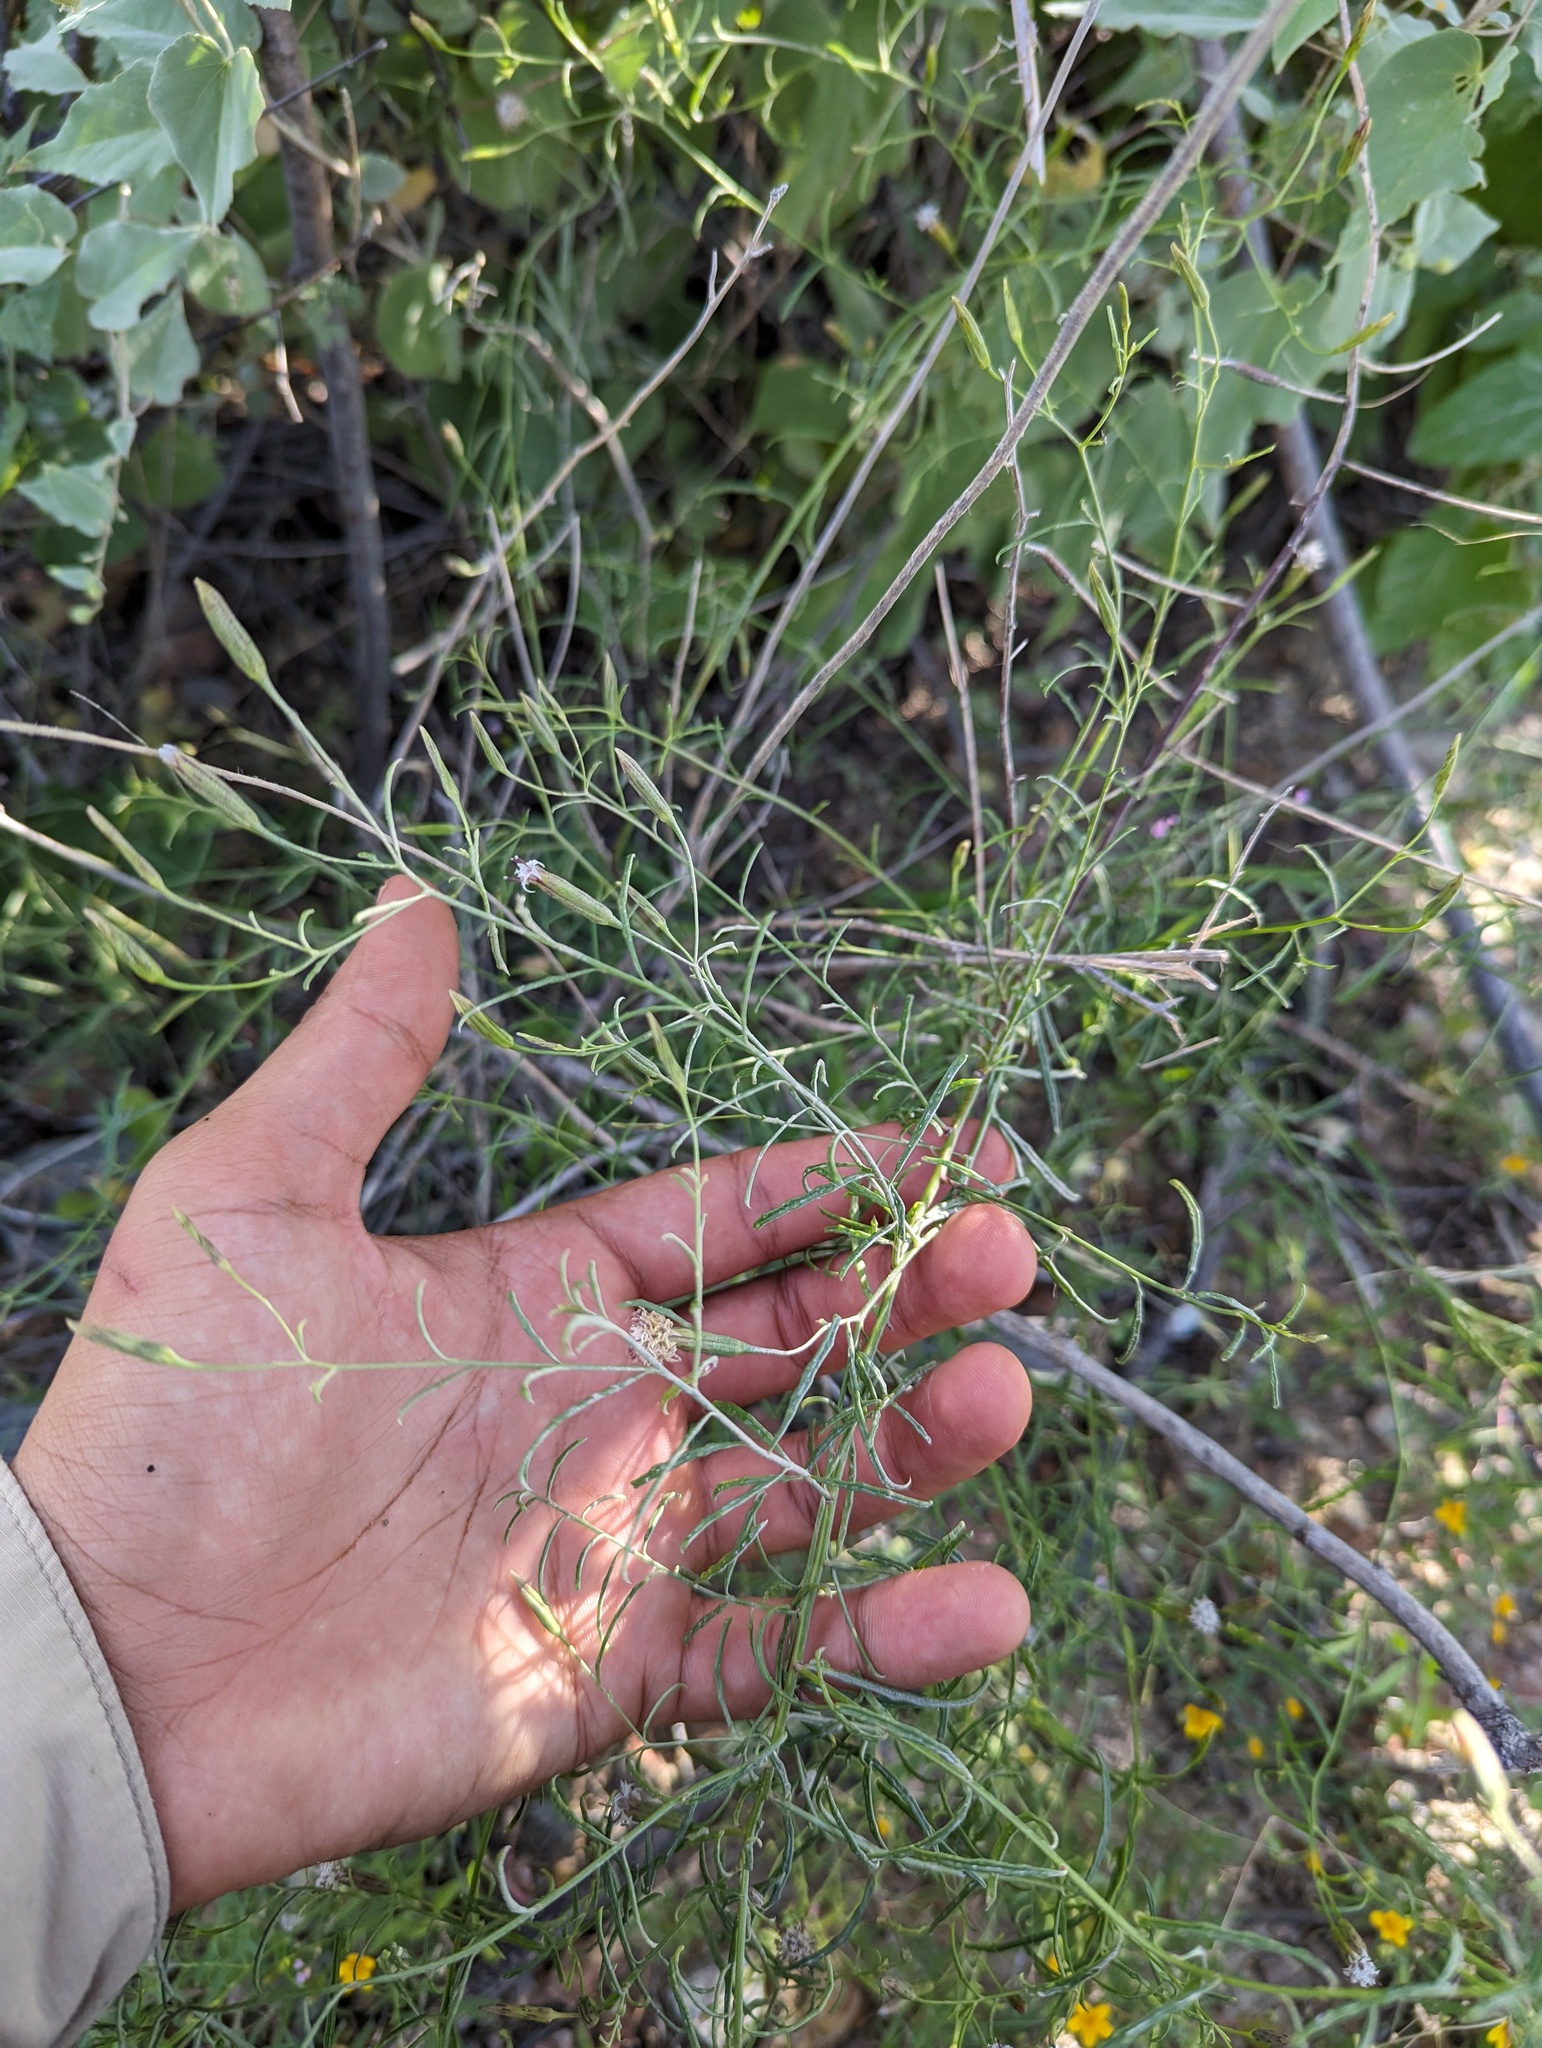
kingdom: Plantae
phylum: Tracheophyta
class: Magnoliopsida
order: Asterales
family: Asteraceae
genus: Porophyllum
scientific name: Porophyllum gracile
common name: Odora
